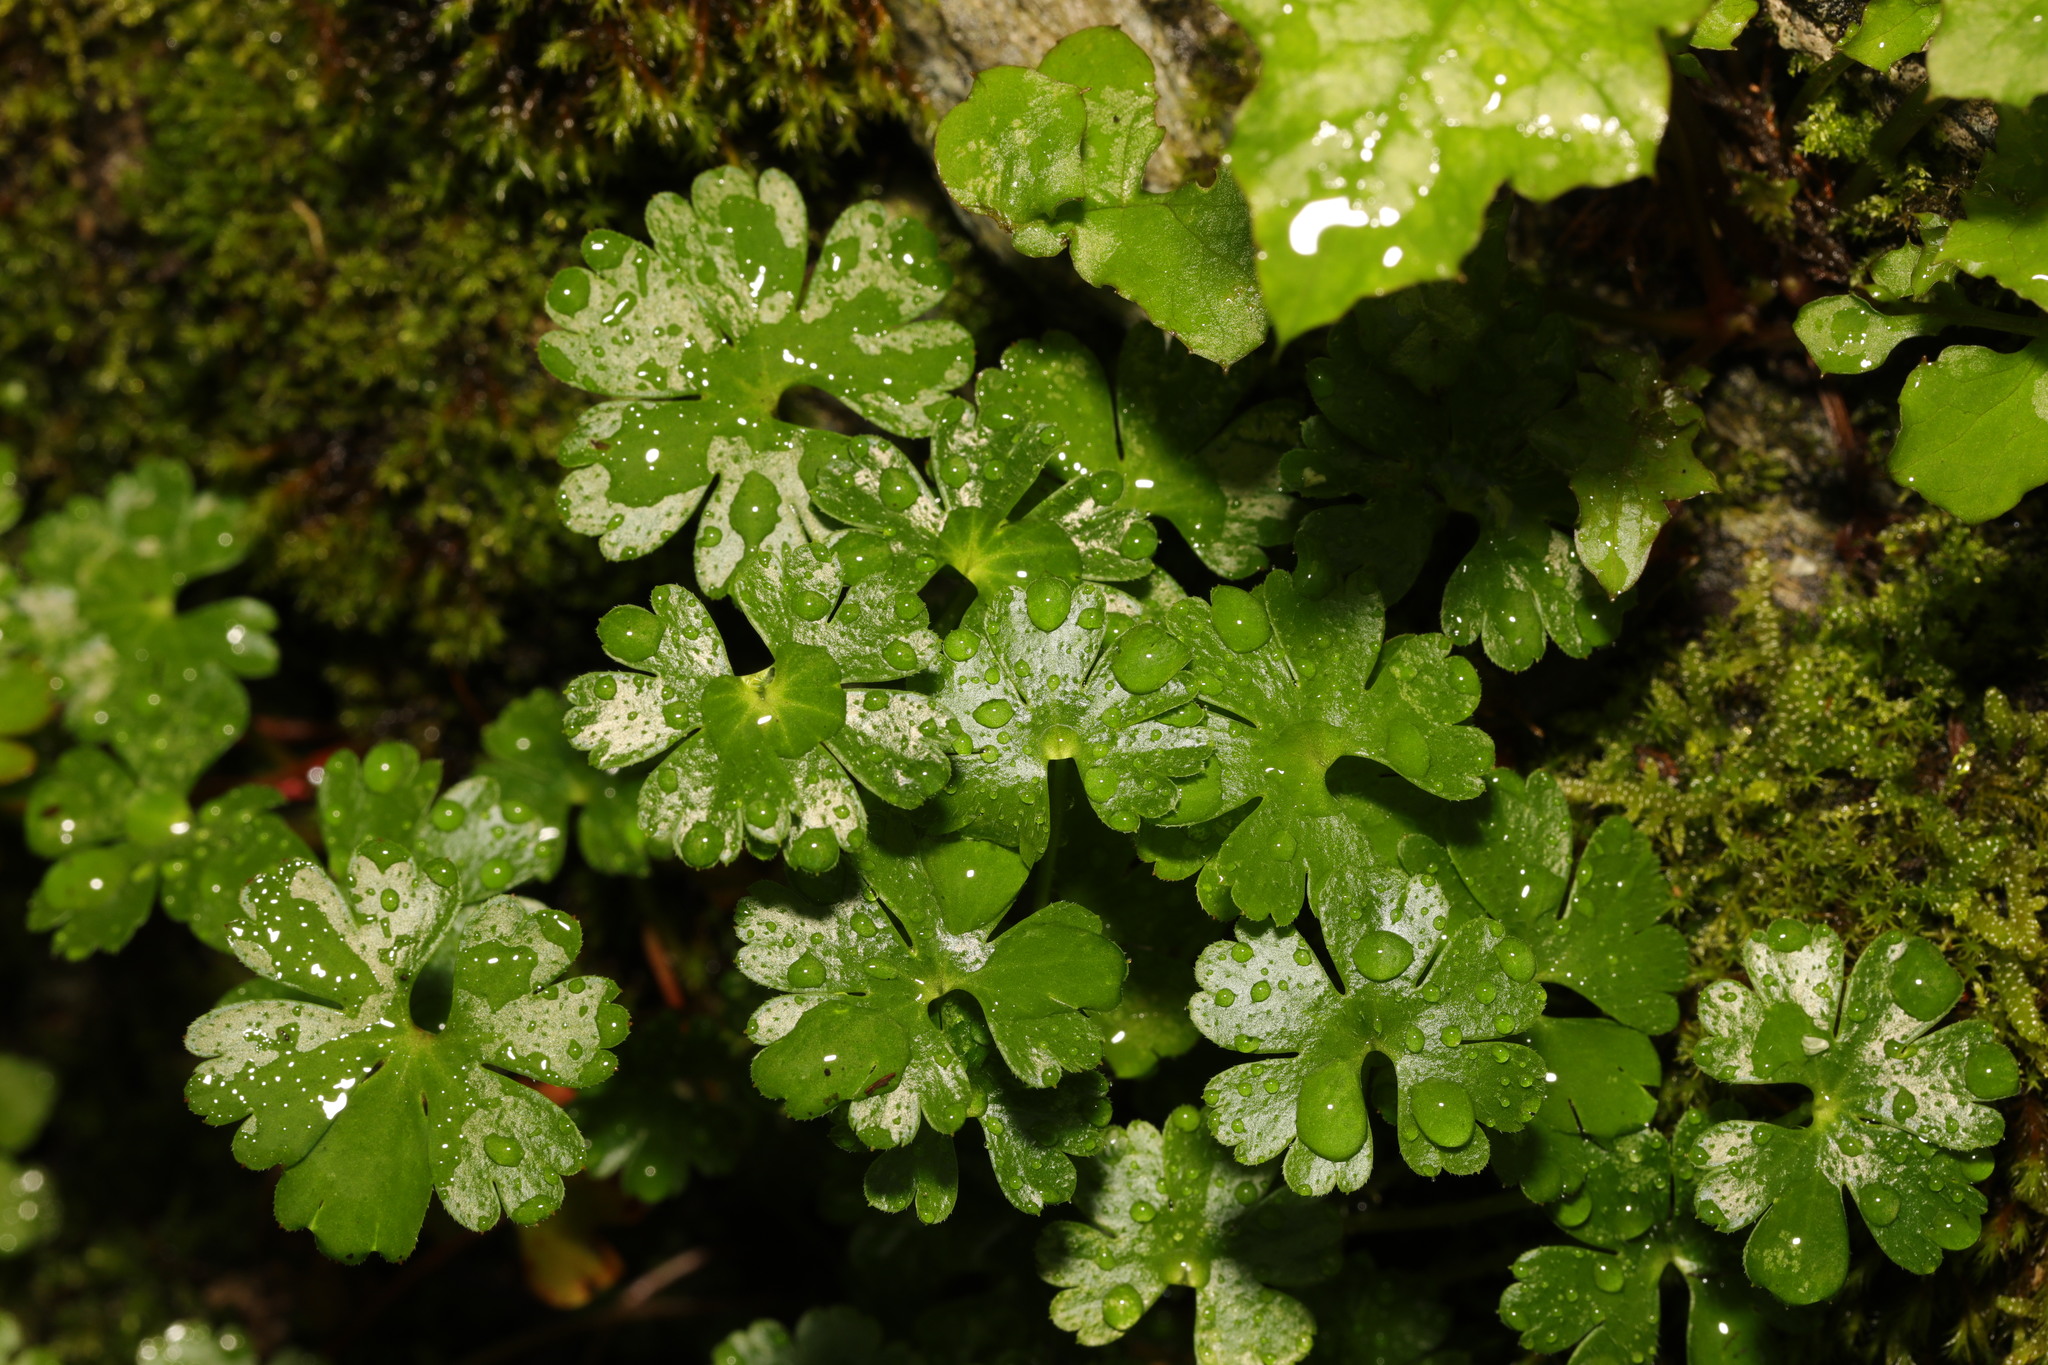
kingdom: Plantae
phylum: Tracheophyta
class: Magnoliopsida
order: Geraniales
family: Geraniaceae
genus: Geranium
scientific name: Geranium lucidum
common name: Shining crane's-bill
